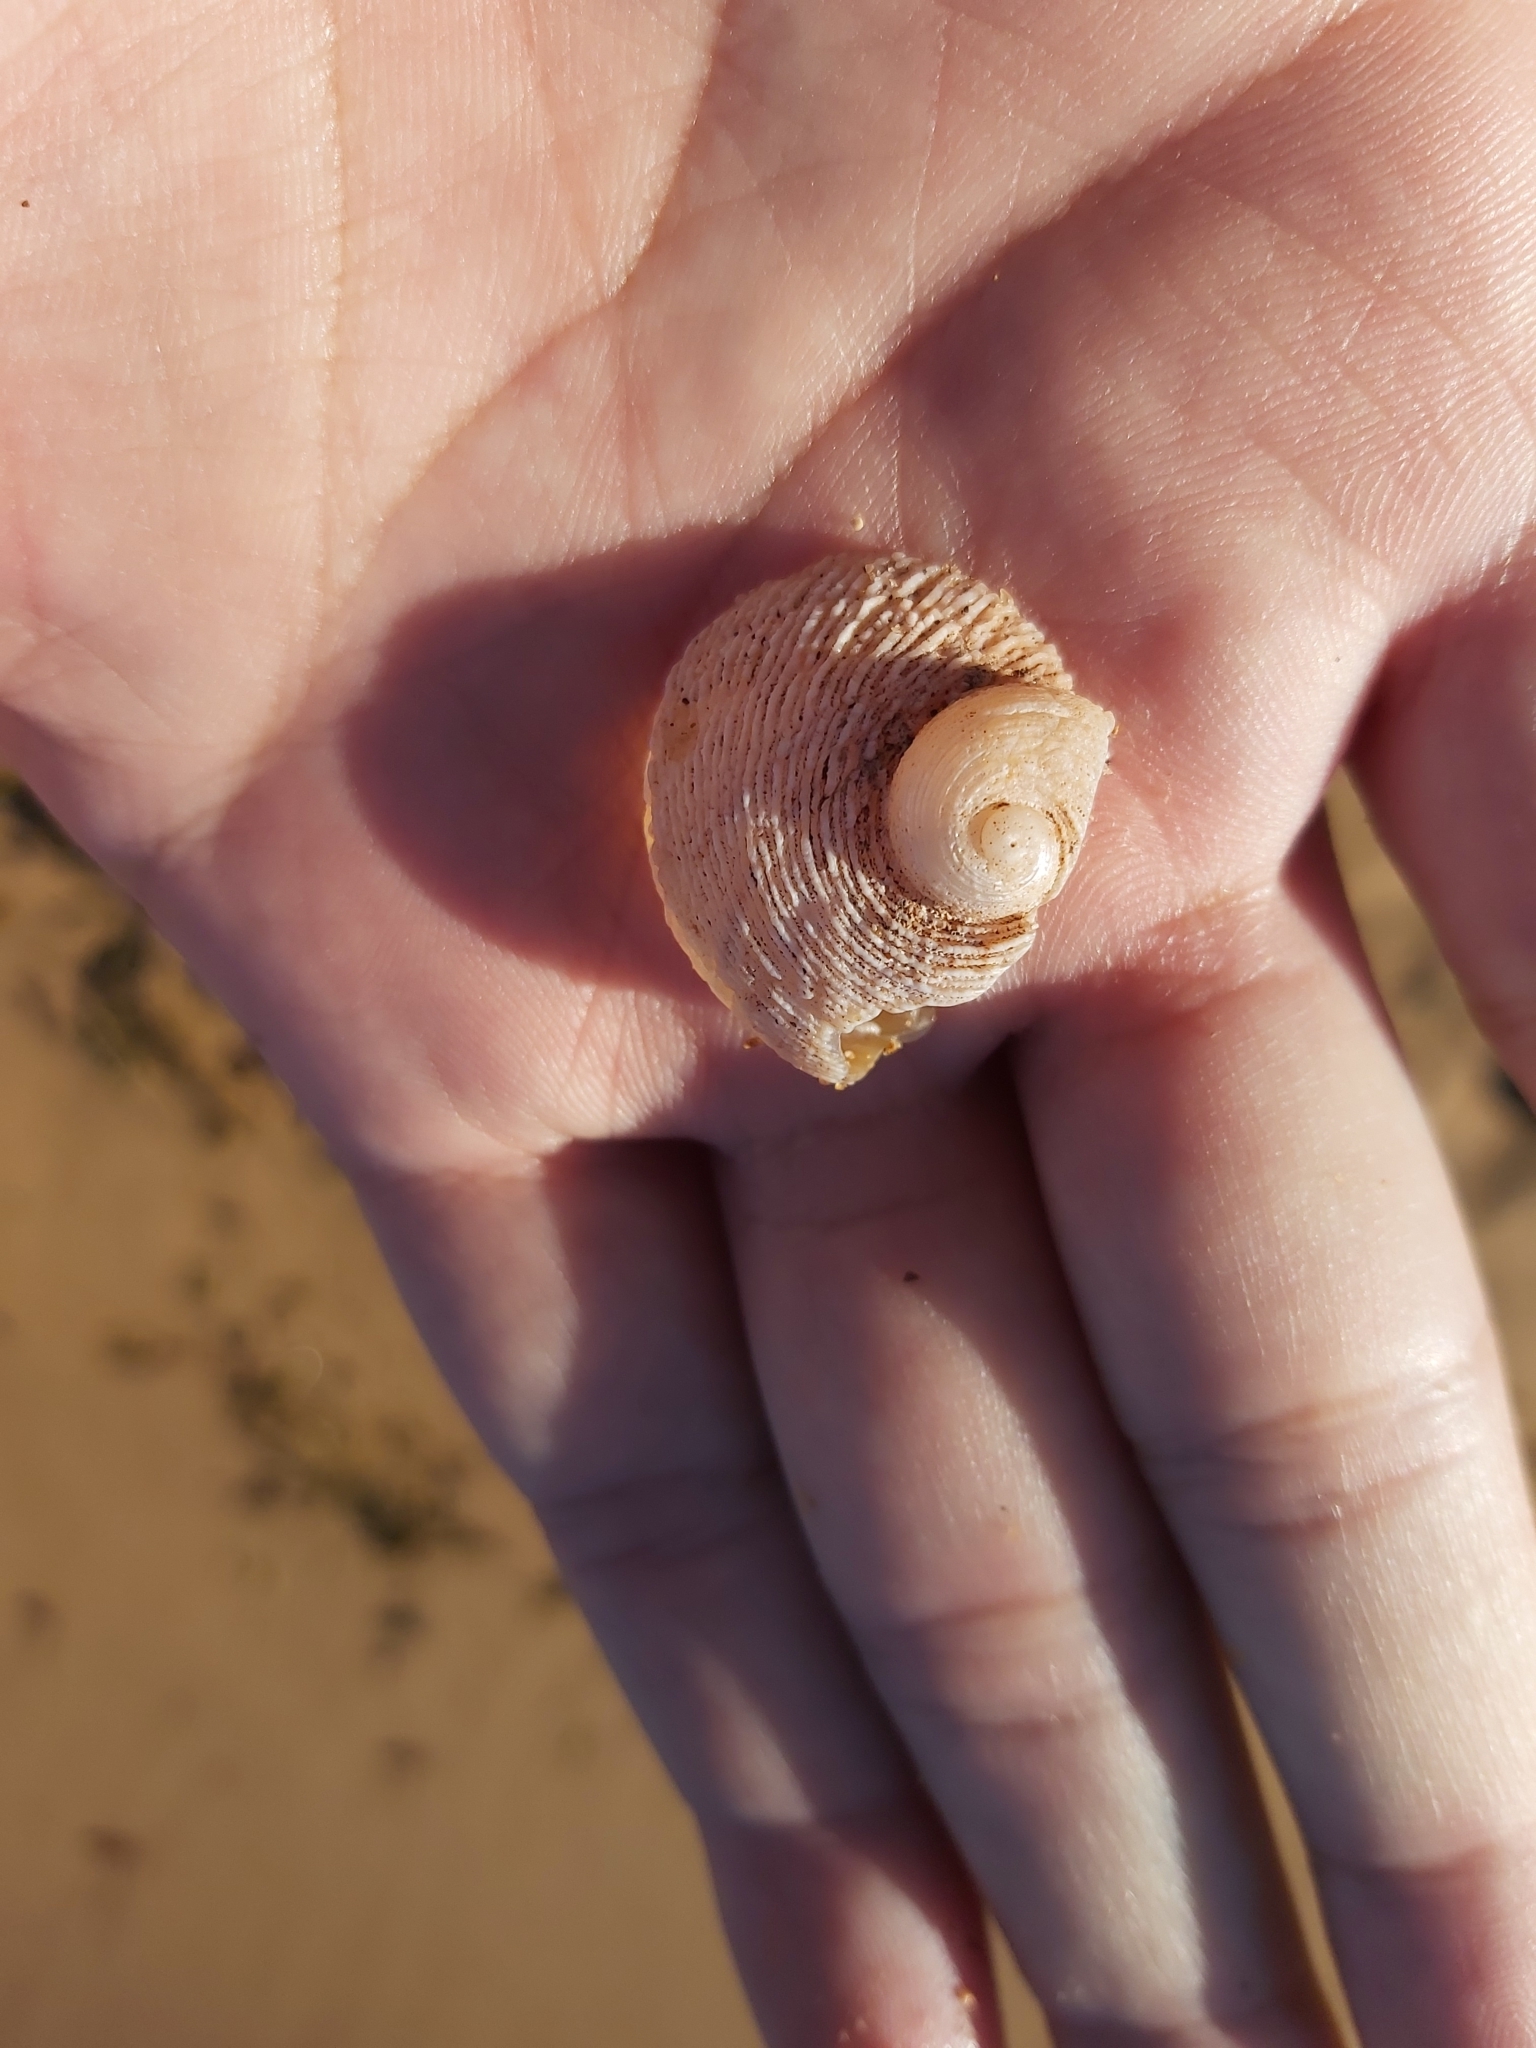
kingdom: Animalia
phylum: Mollusca
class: Gastropoda
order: Seguenziida
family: Chilodontaidae
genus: Granata
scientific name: Granata imbricata
